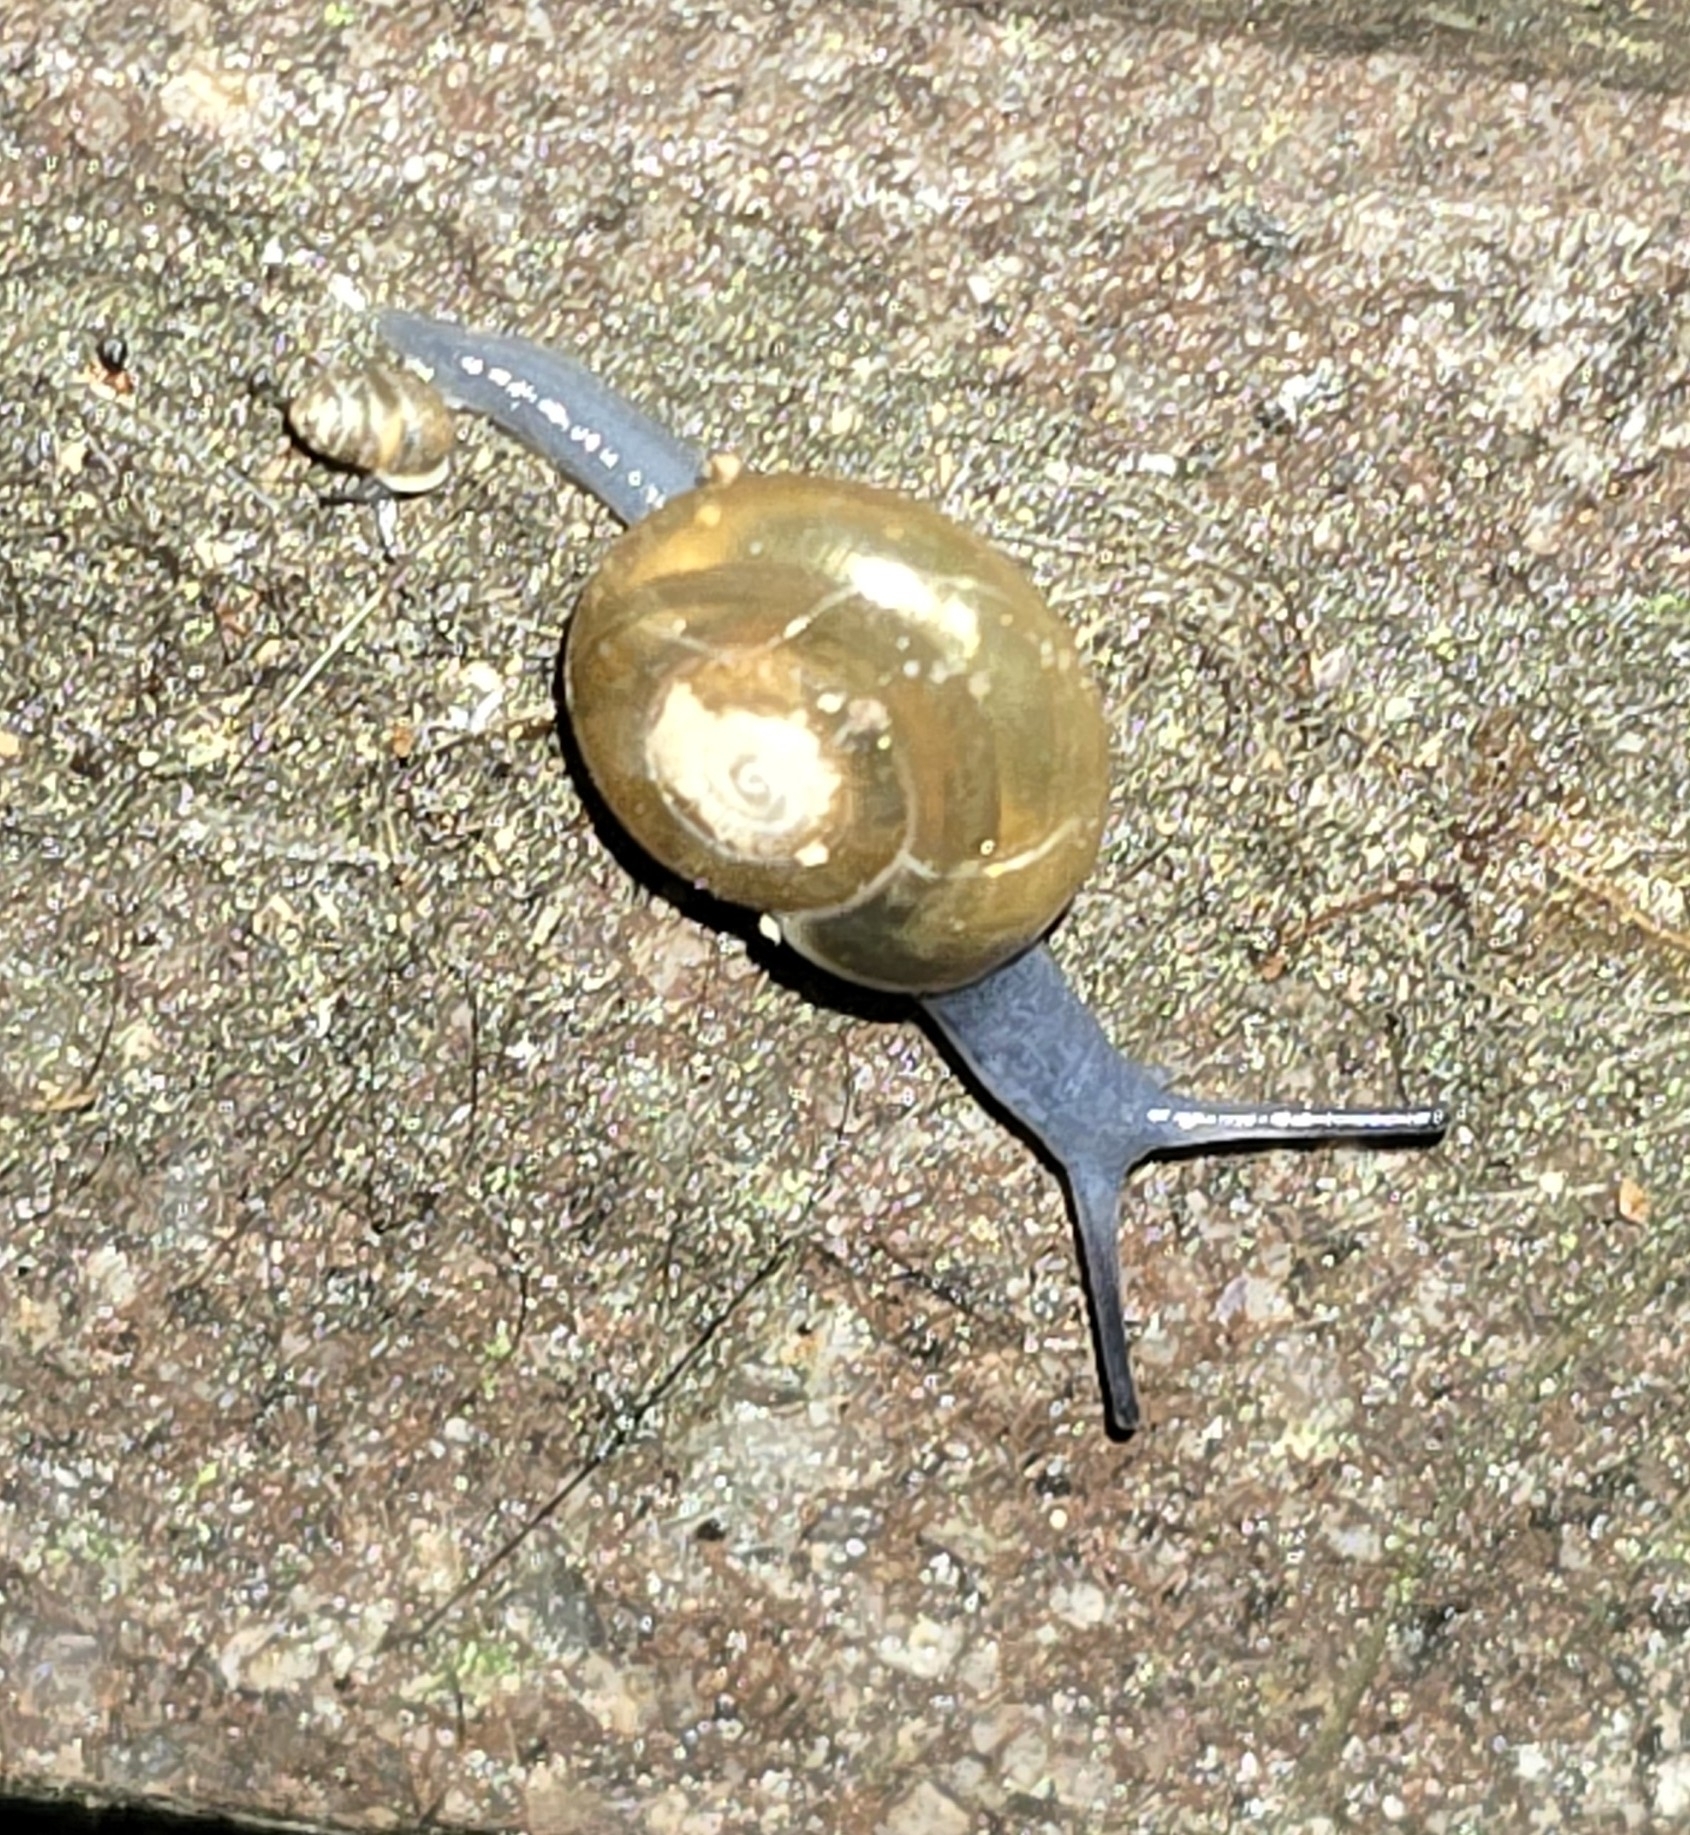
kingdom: Animalia
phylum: Mollusca
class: Gastropoda
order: Stylommatophora
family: Oxychilidae
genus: Oxychilus
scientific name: Oxychilus draparnaudi
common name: Draparnaud's glass snail
